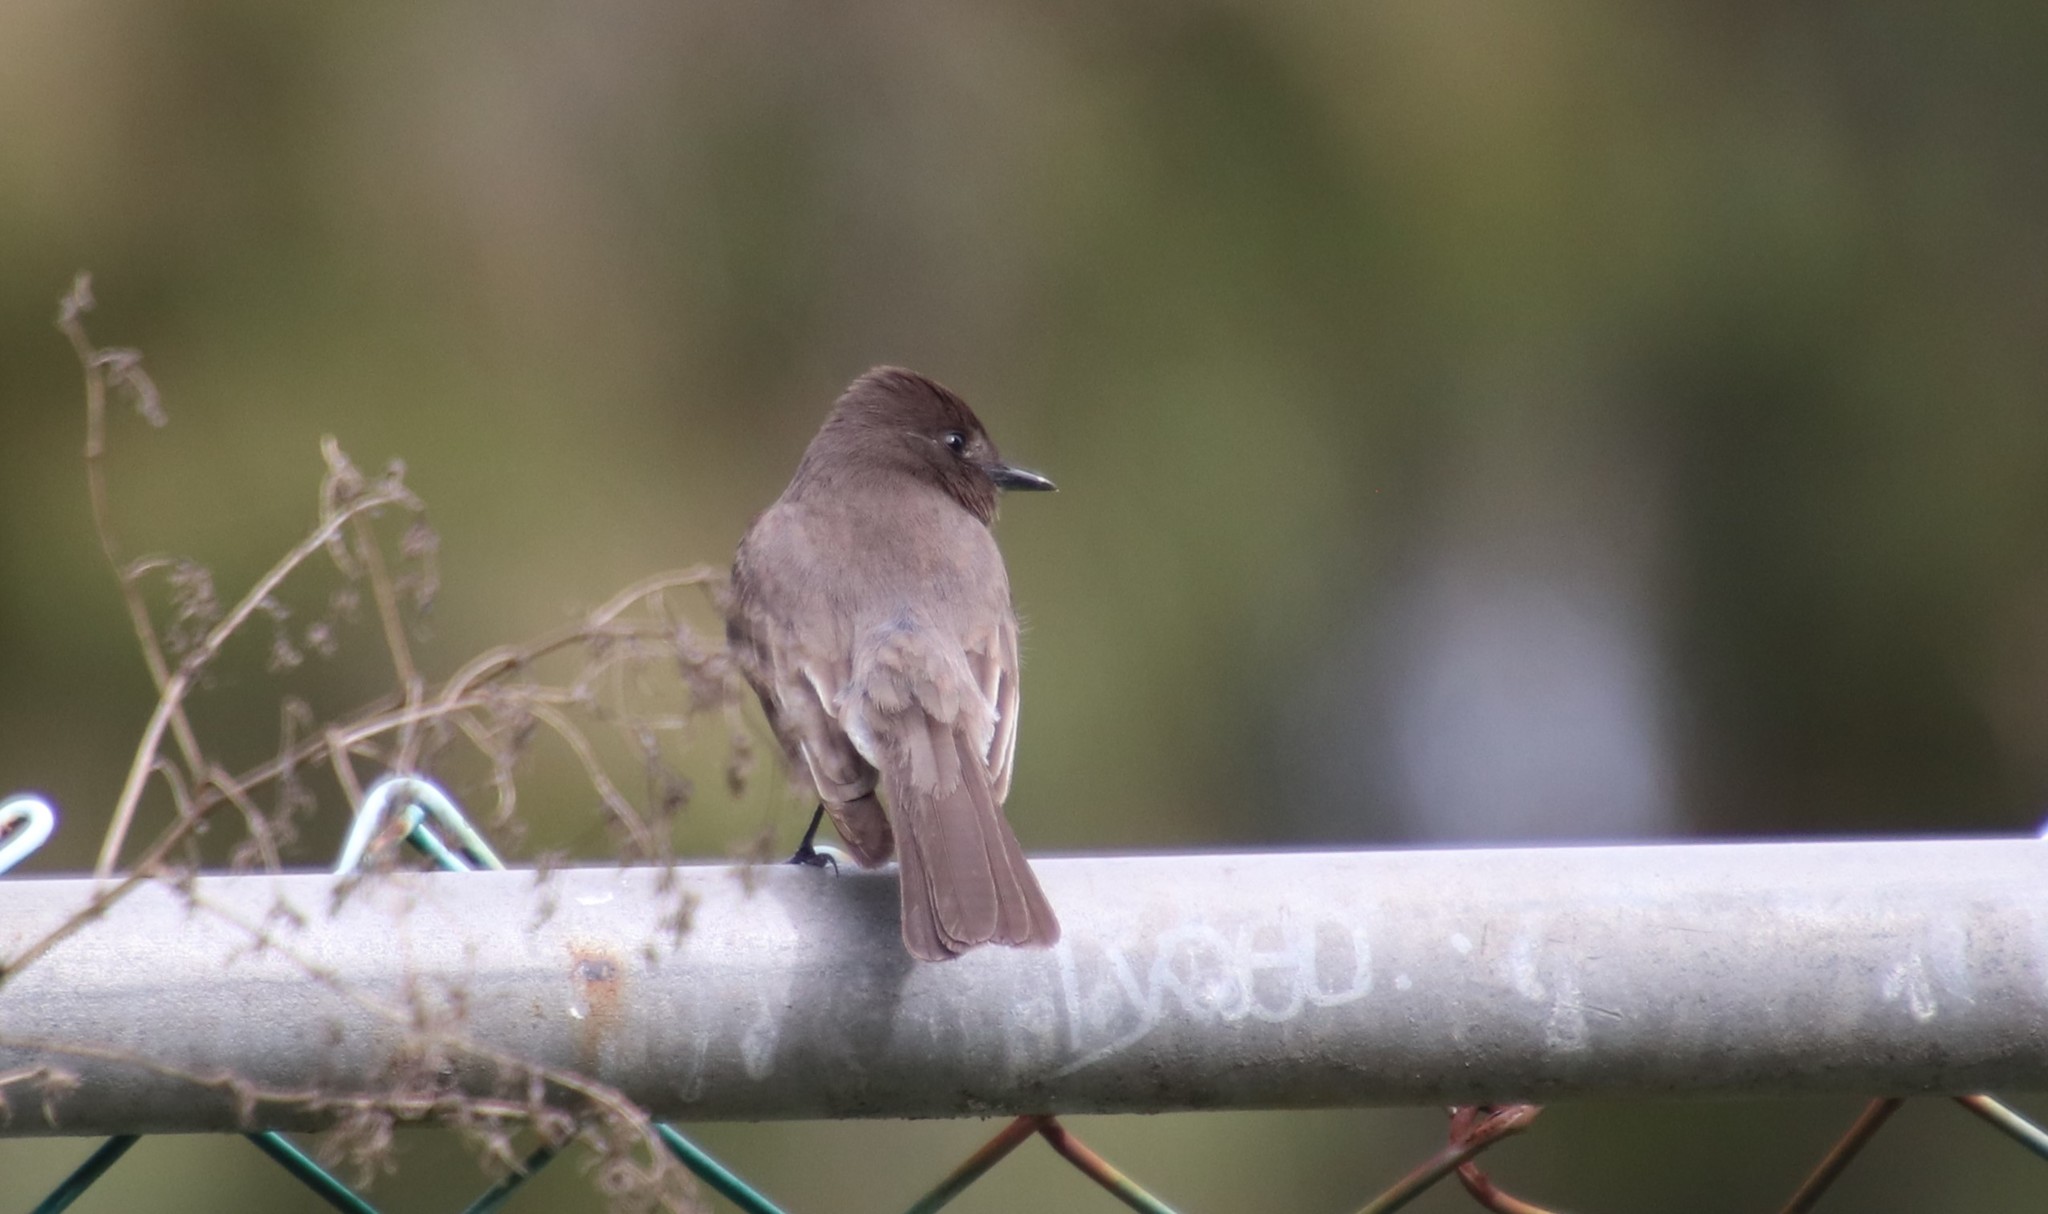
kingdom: Animalia
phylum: Chordata
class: Aves
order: Passeriformes
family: Tyrannidae
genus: Sayornis
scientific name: Sayornis nigricans
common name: Black phoebe
